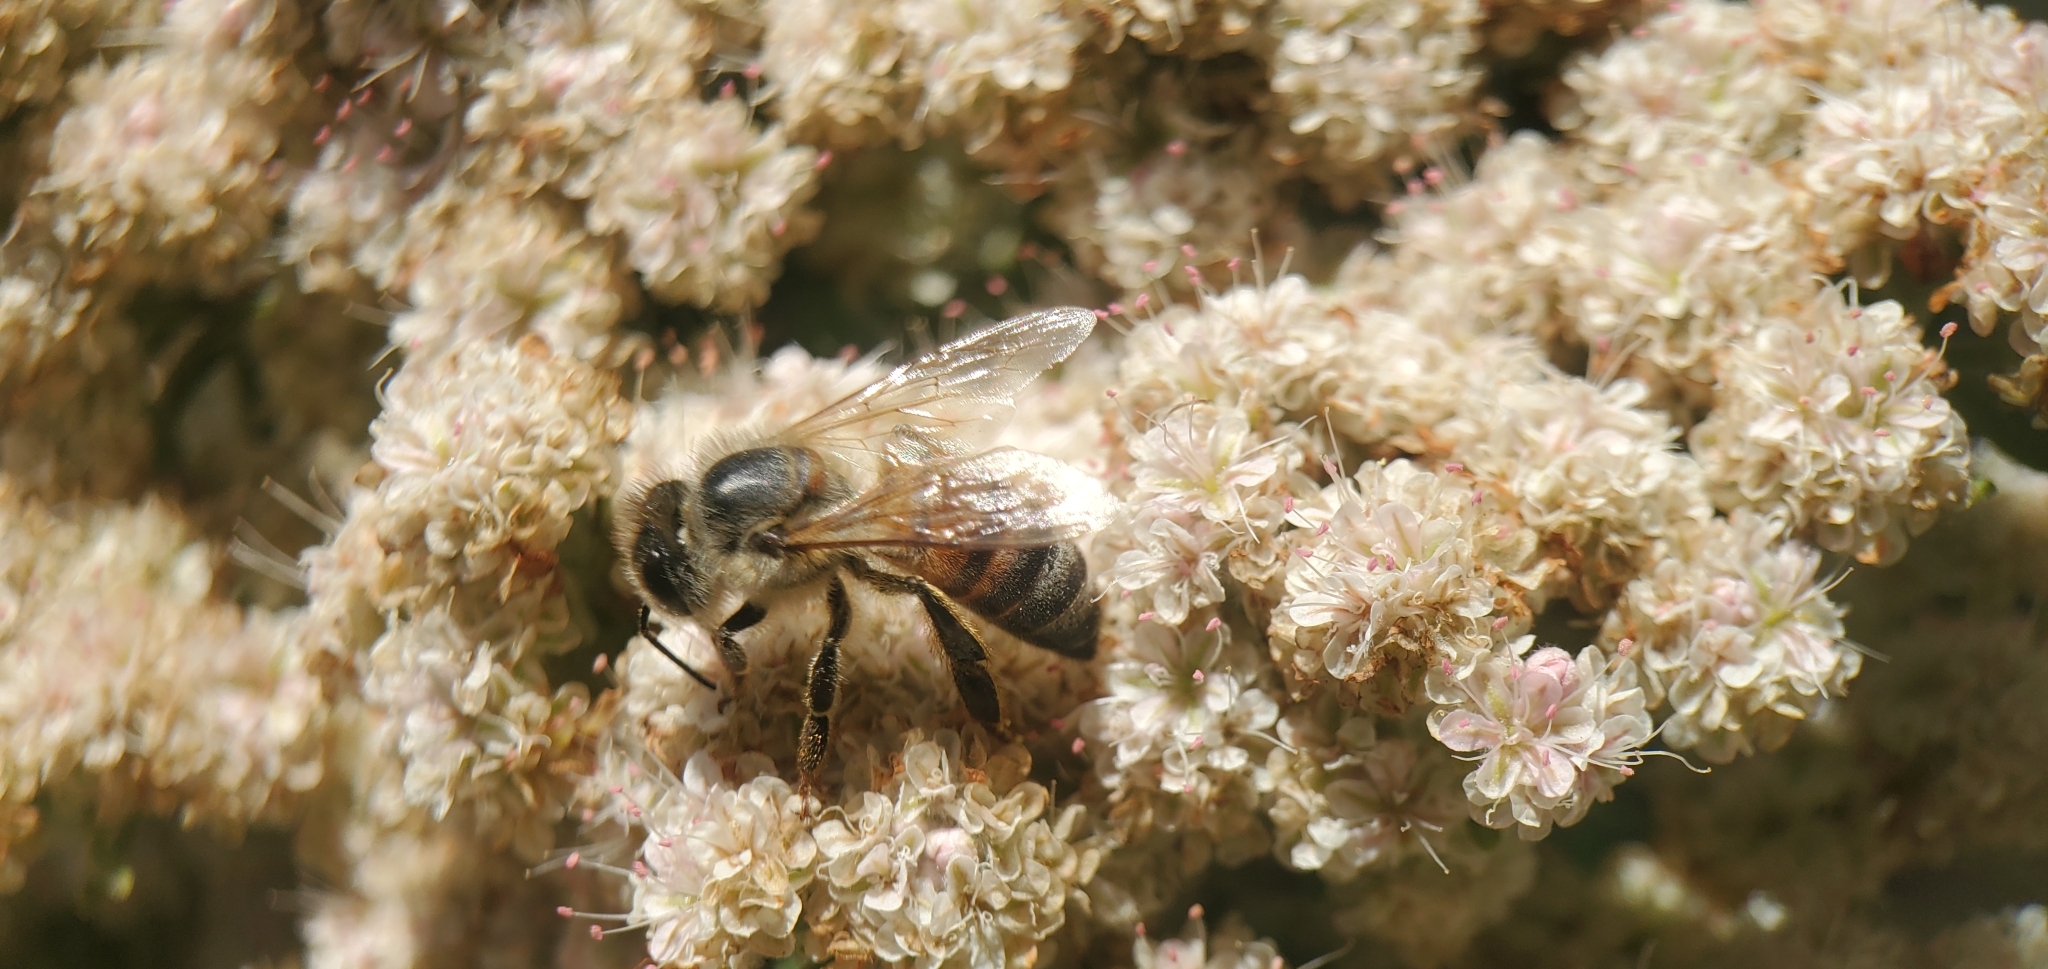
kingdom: Animalia
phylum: Arthropoda
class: Insecta
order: Hymenoptera
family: Apidae
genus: Apis
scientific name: Apis mellifera
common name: Honey bee
